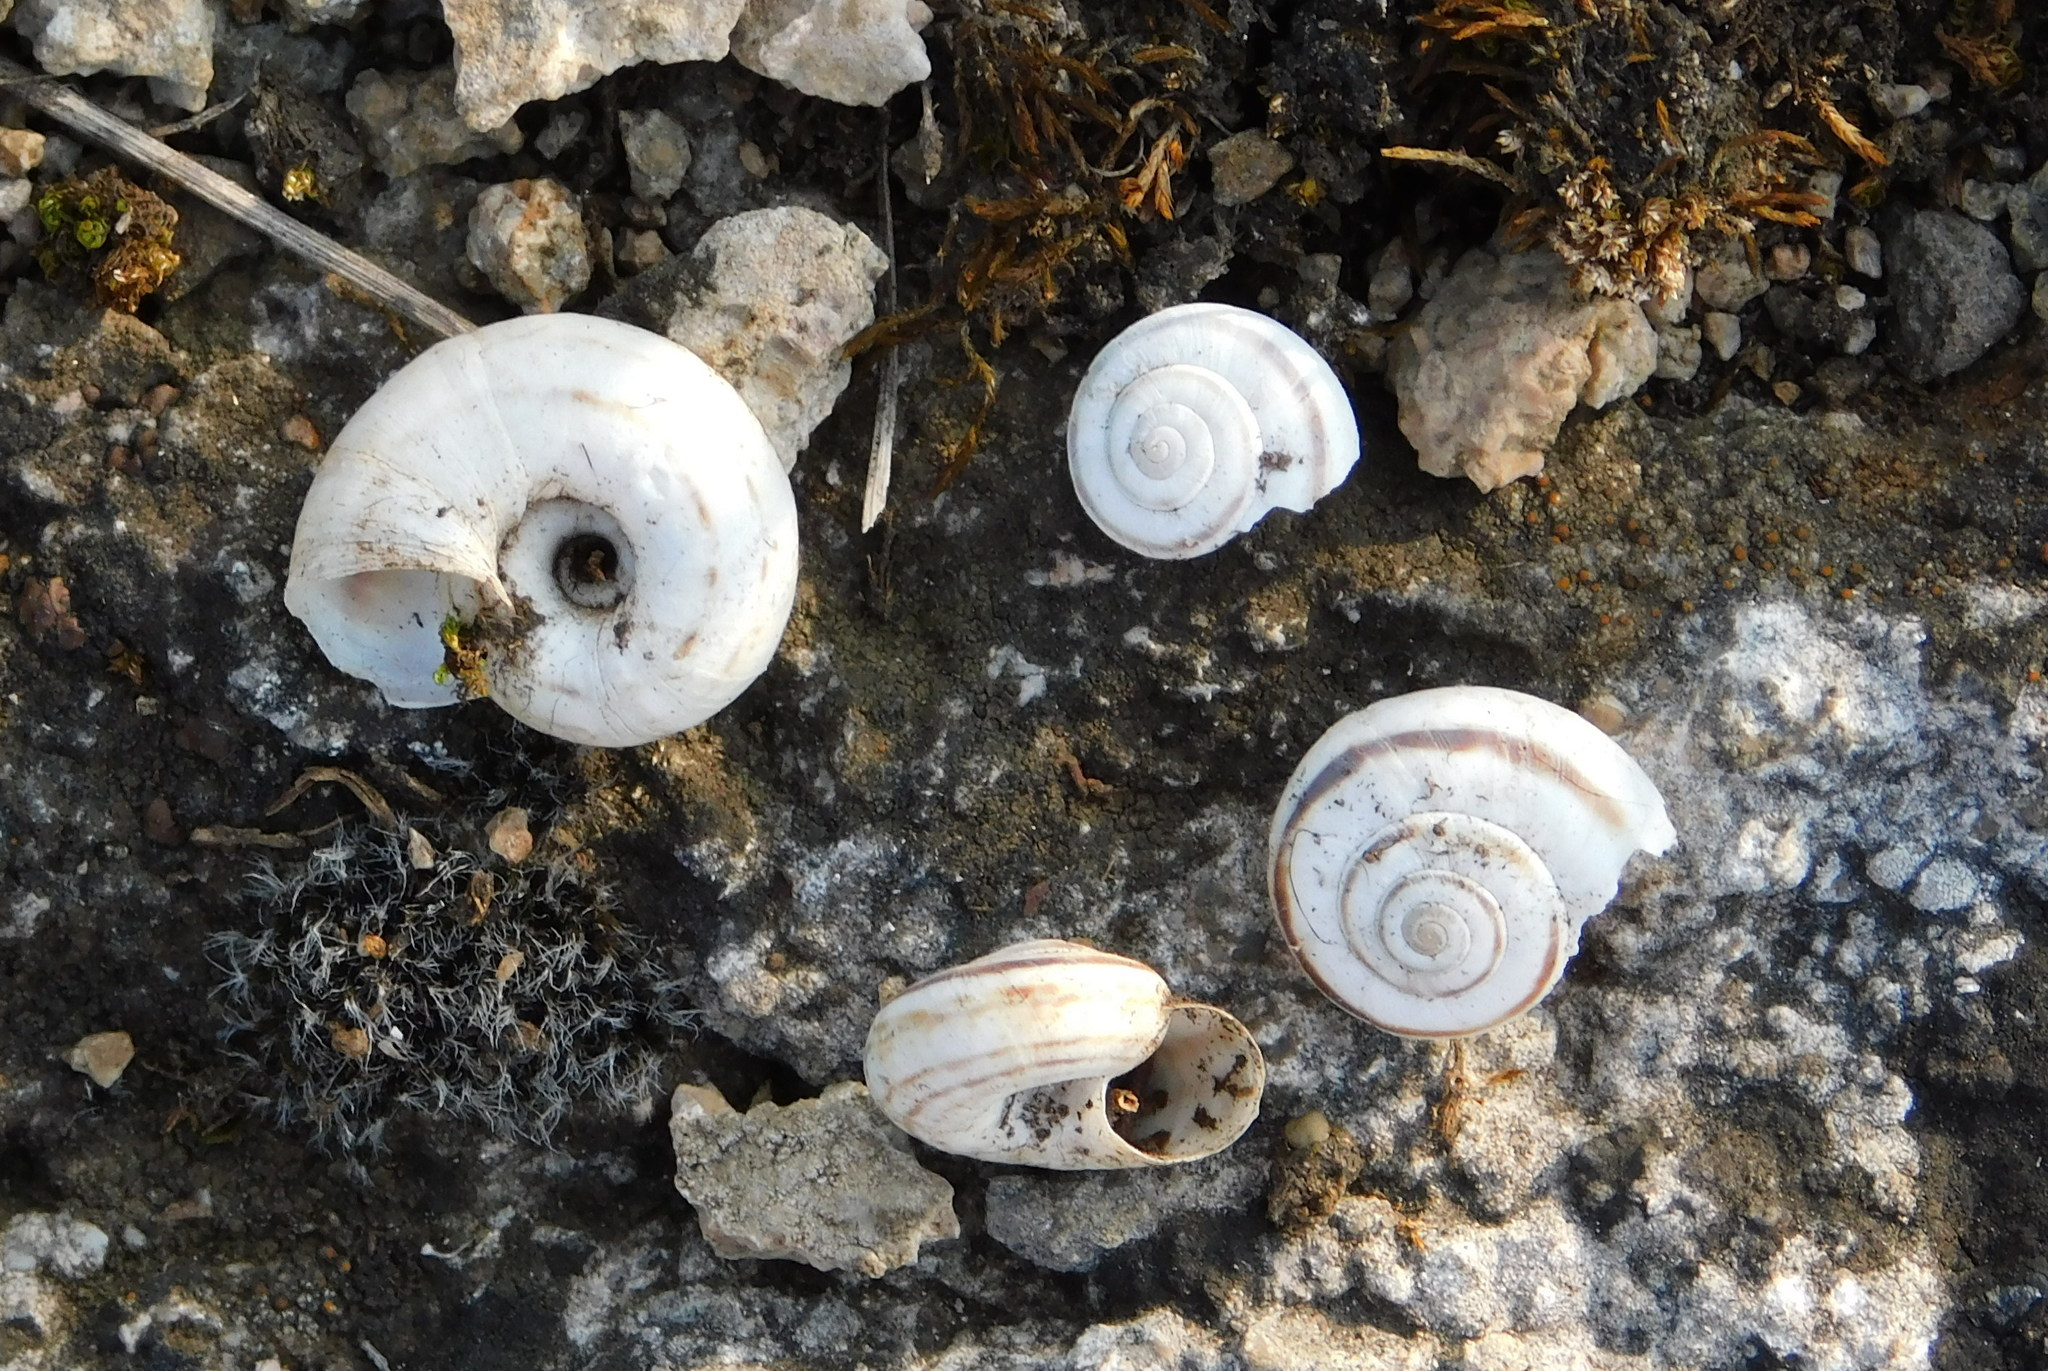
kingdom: Animalia
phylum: Mollusca
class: Gastropoda
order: Stylommatophora
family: Geomitridae
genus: Xerolenta
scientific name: Xerolenta obvia
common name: White heath snail
